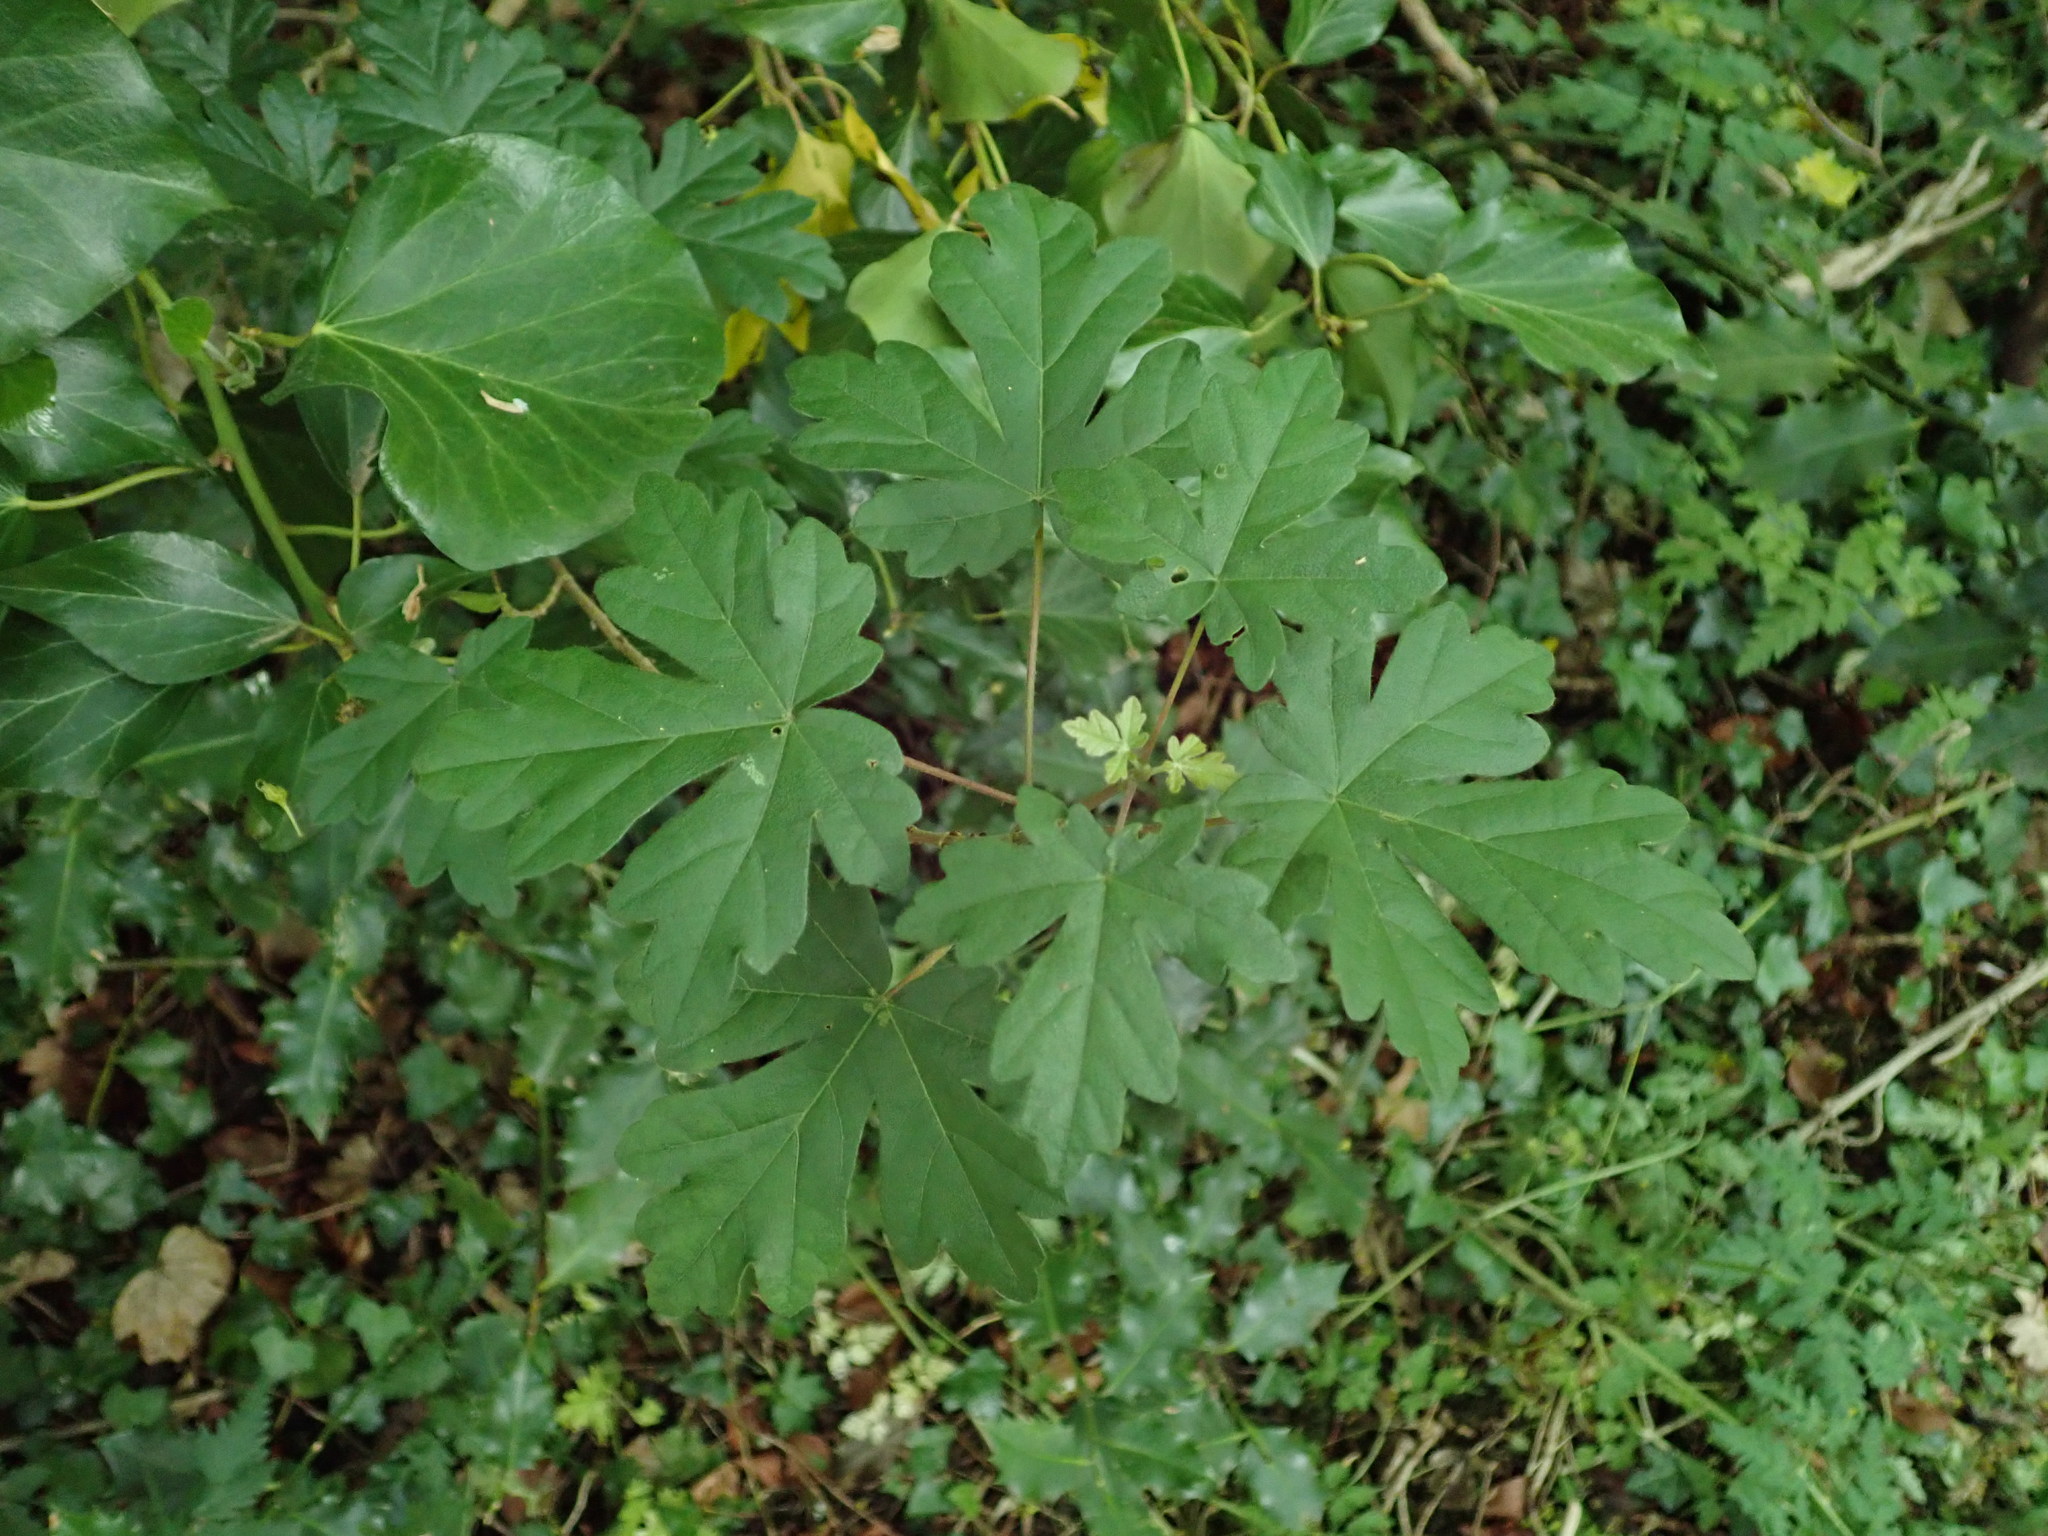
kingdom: Plantae
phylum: Tracheophyta
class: Magnoliopsida
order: Sapindales
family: Sapindaceae
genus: Acer
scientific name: Acer campestre
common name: Field maple
